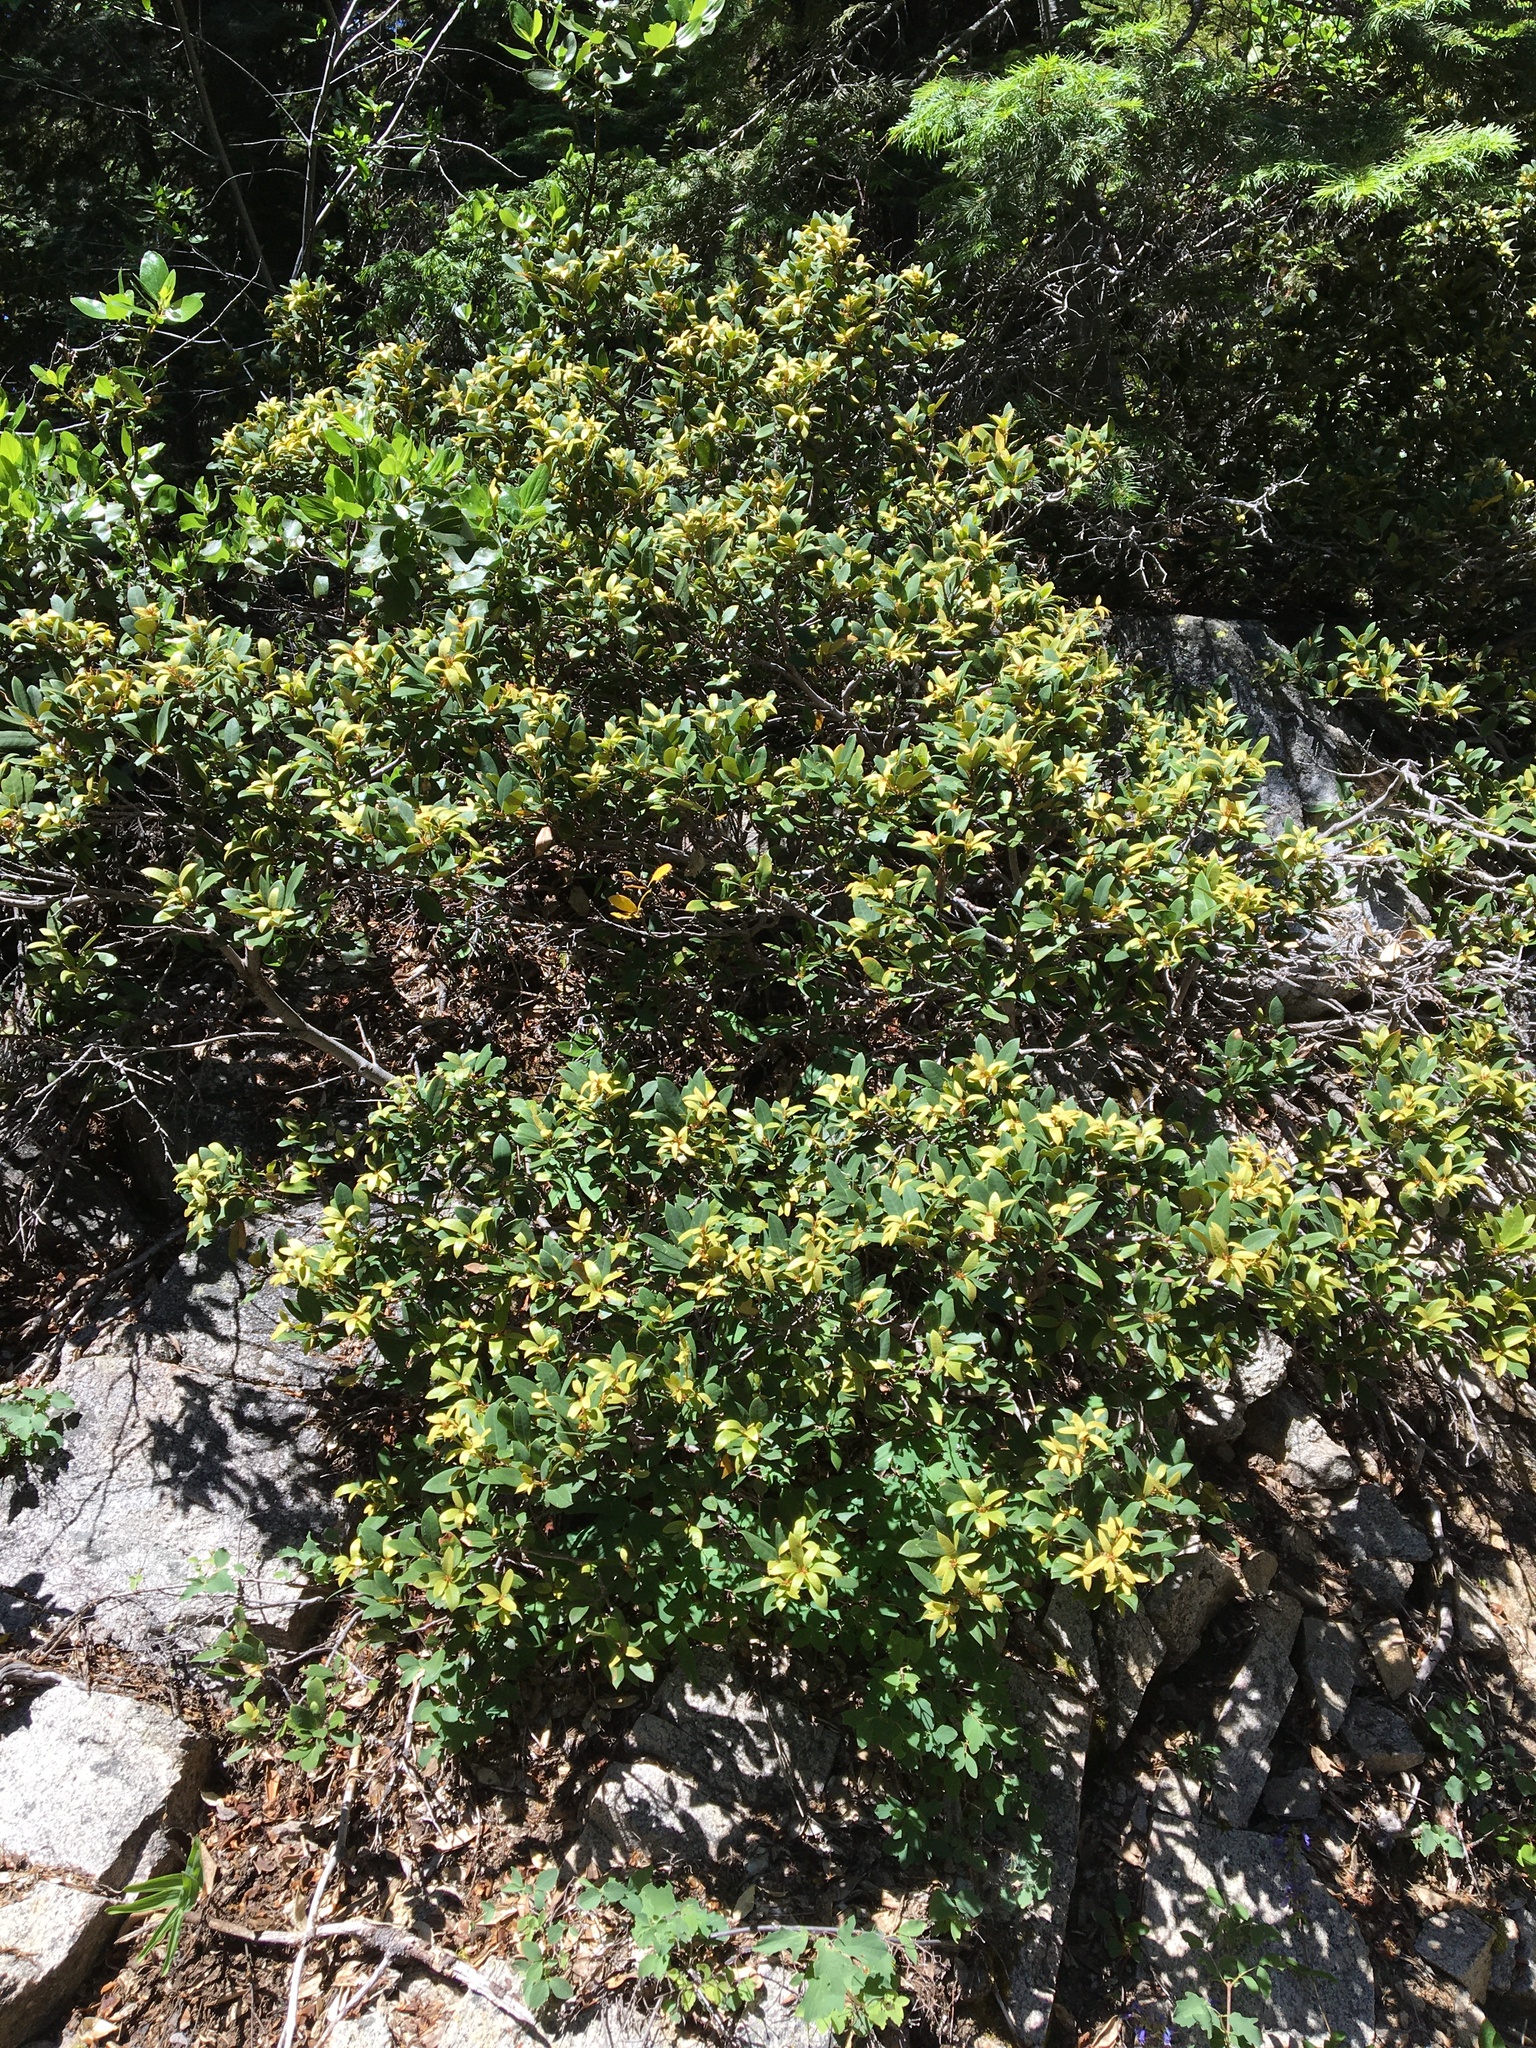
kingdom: Plantae
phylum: Tracheophyta
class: Magnoliopsida
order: Fagales
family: Fagaceae
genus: Chrysolepis
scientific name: Chrysolepis chrysophylla
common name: Giant chinquapin
